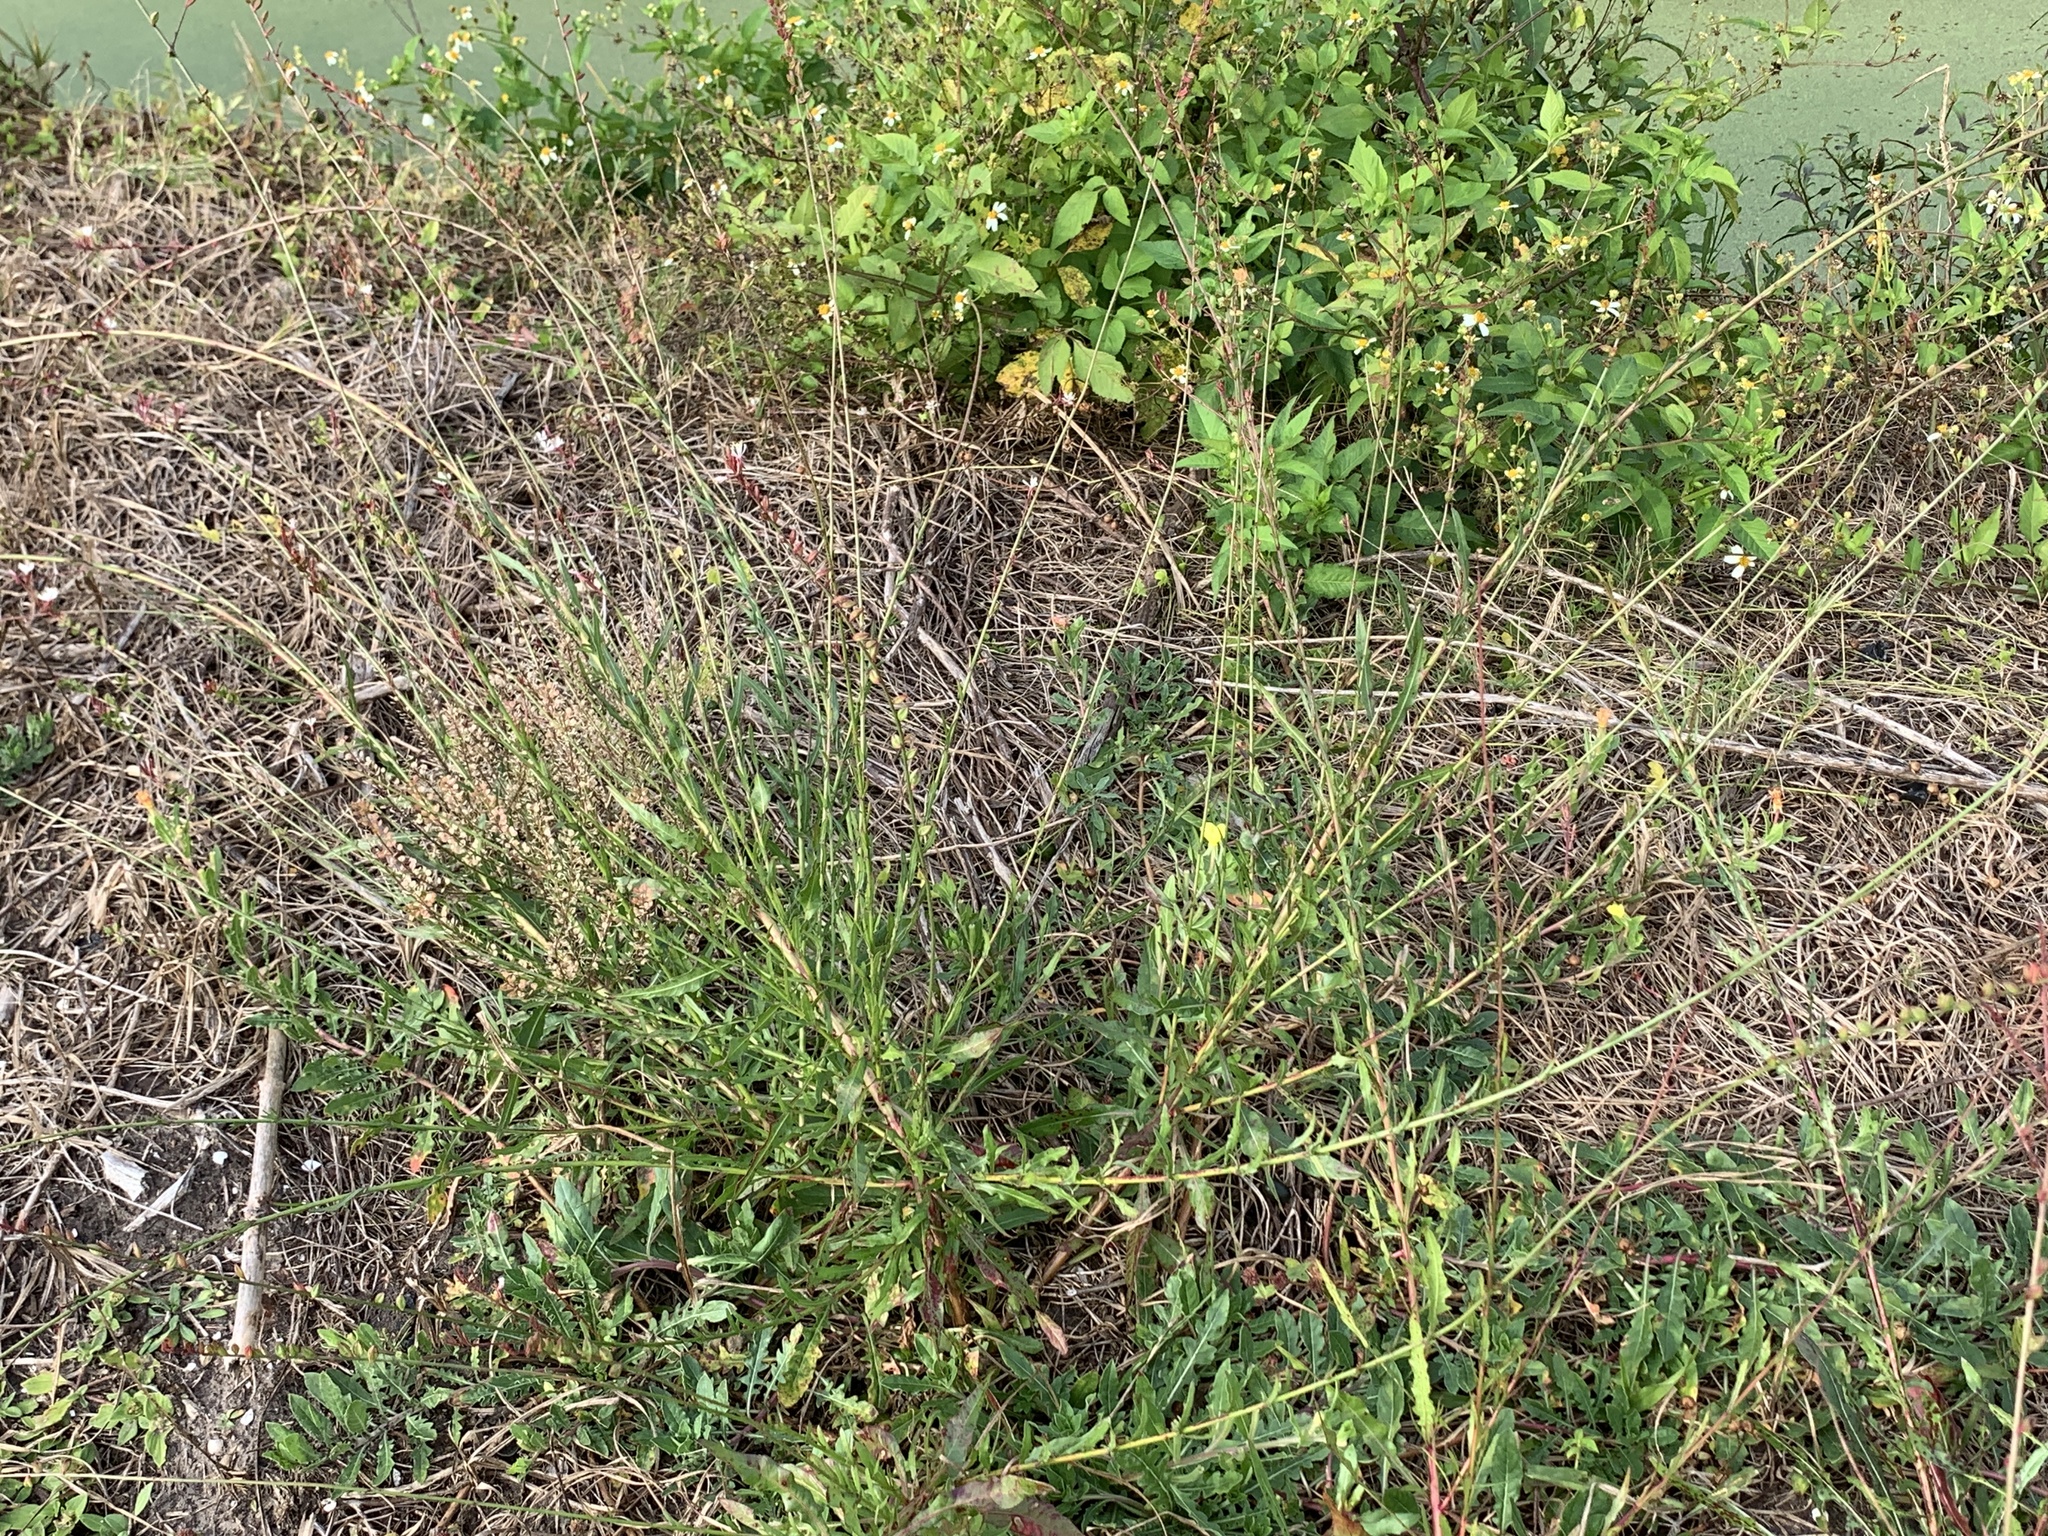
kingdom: Plantae
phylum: Tracheophyta
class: Magnoliopsida
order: Myrtales
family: Onagraceae
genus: Oenothera
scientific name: Oenothera simulans
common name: Southern beeblossom
